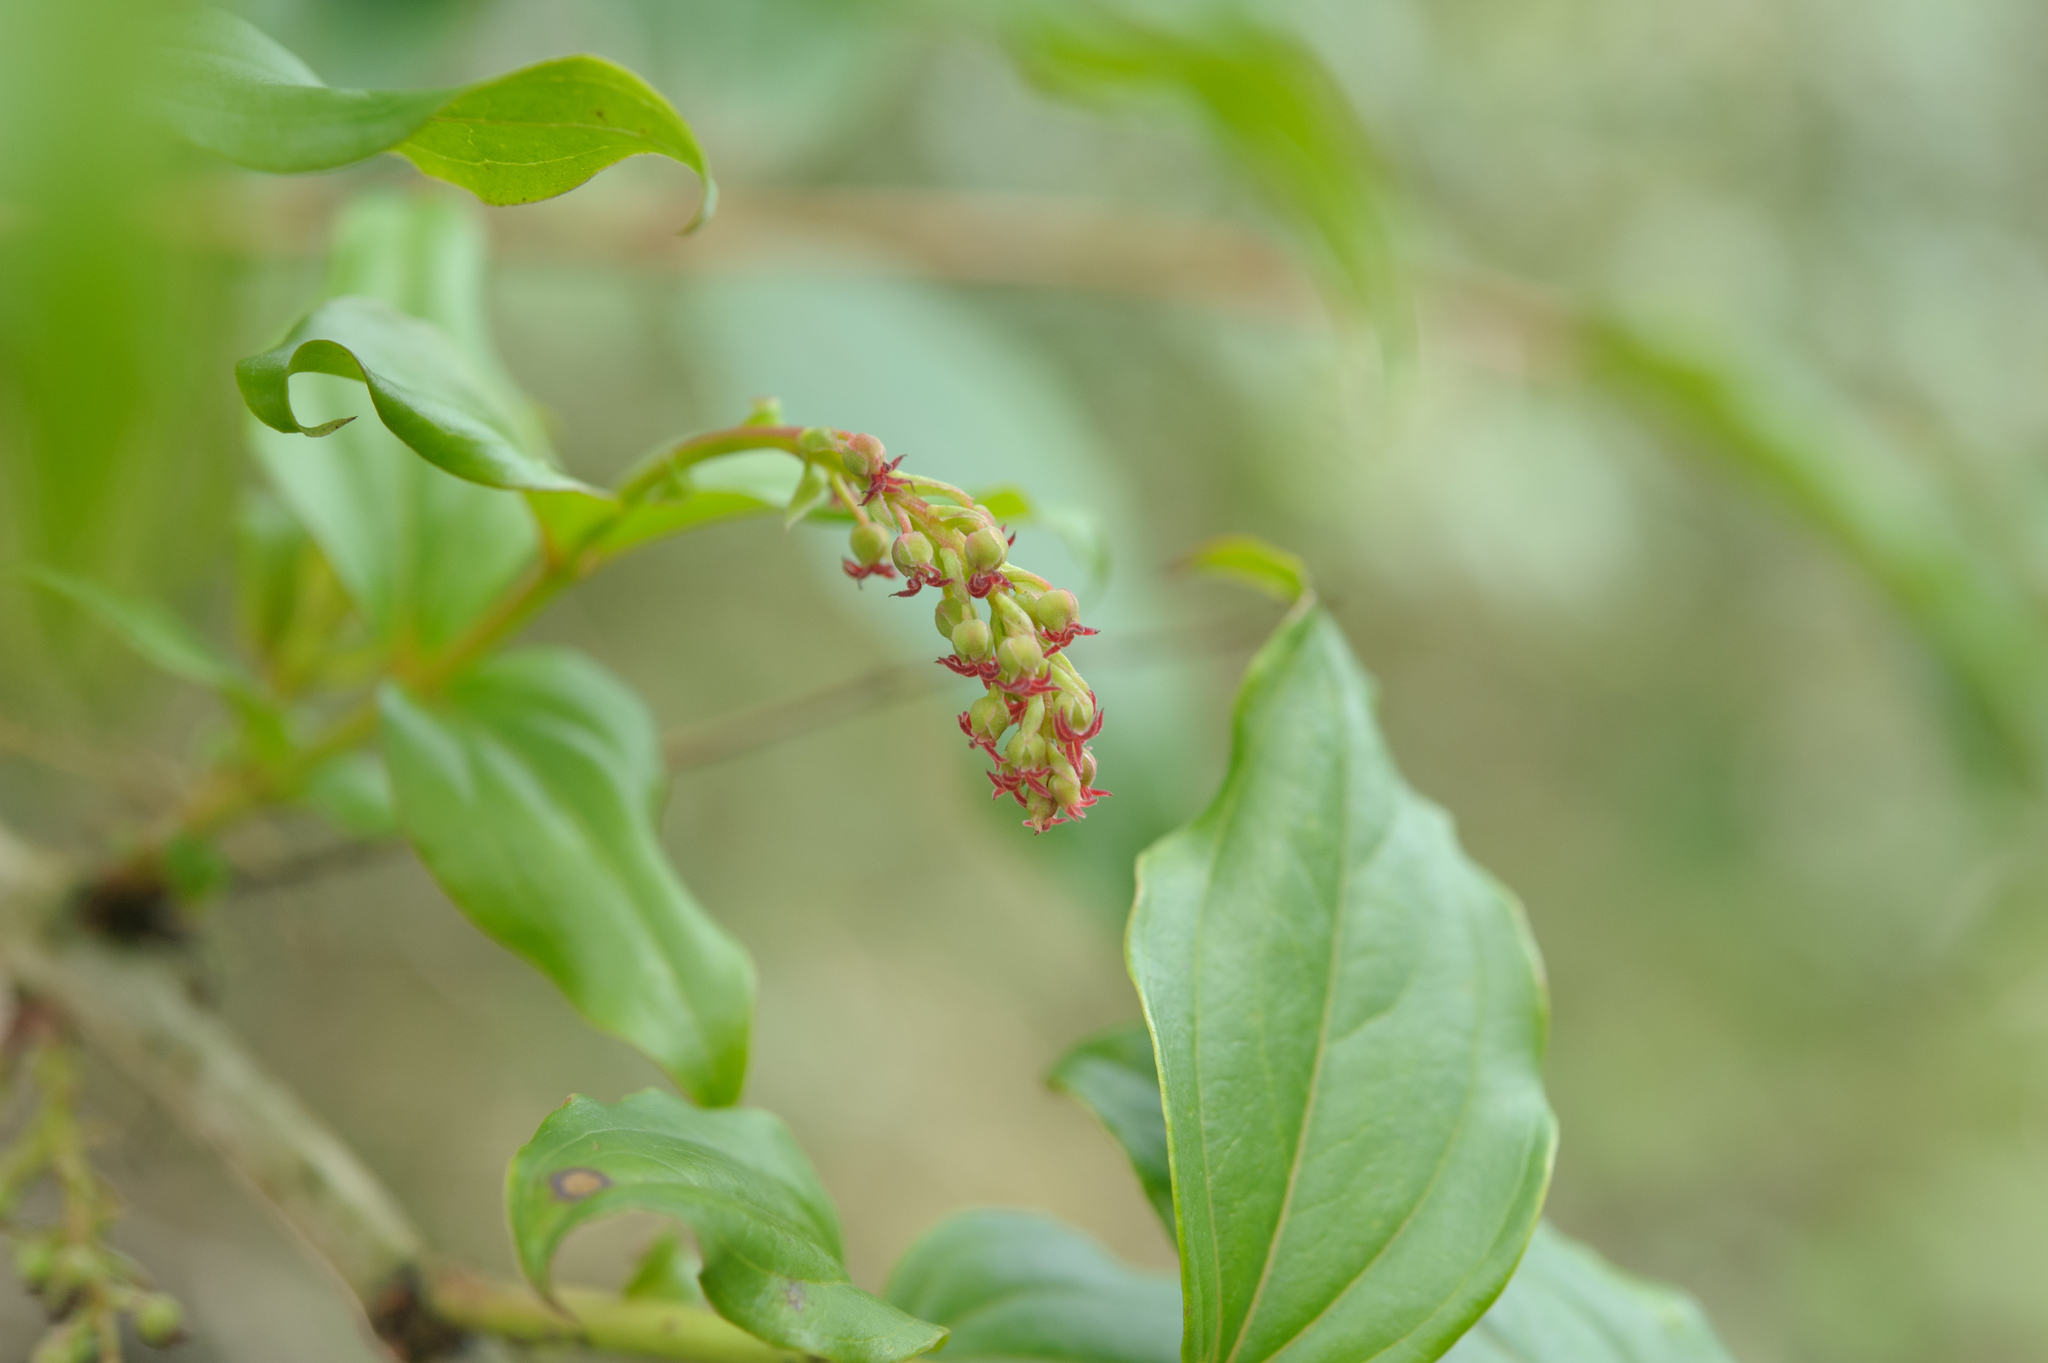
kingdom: Plantae
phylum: Tracheophyta
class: Magnoliopsida
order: Cucurbitales
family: Coriariaceae
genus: Coriaria
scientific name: Coriaria japonica
